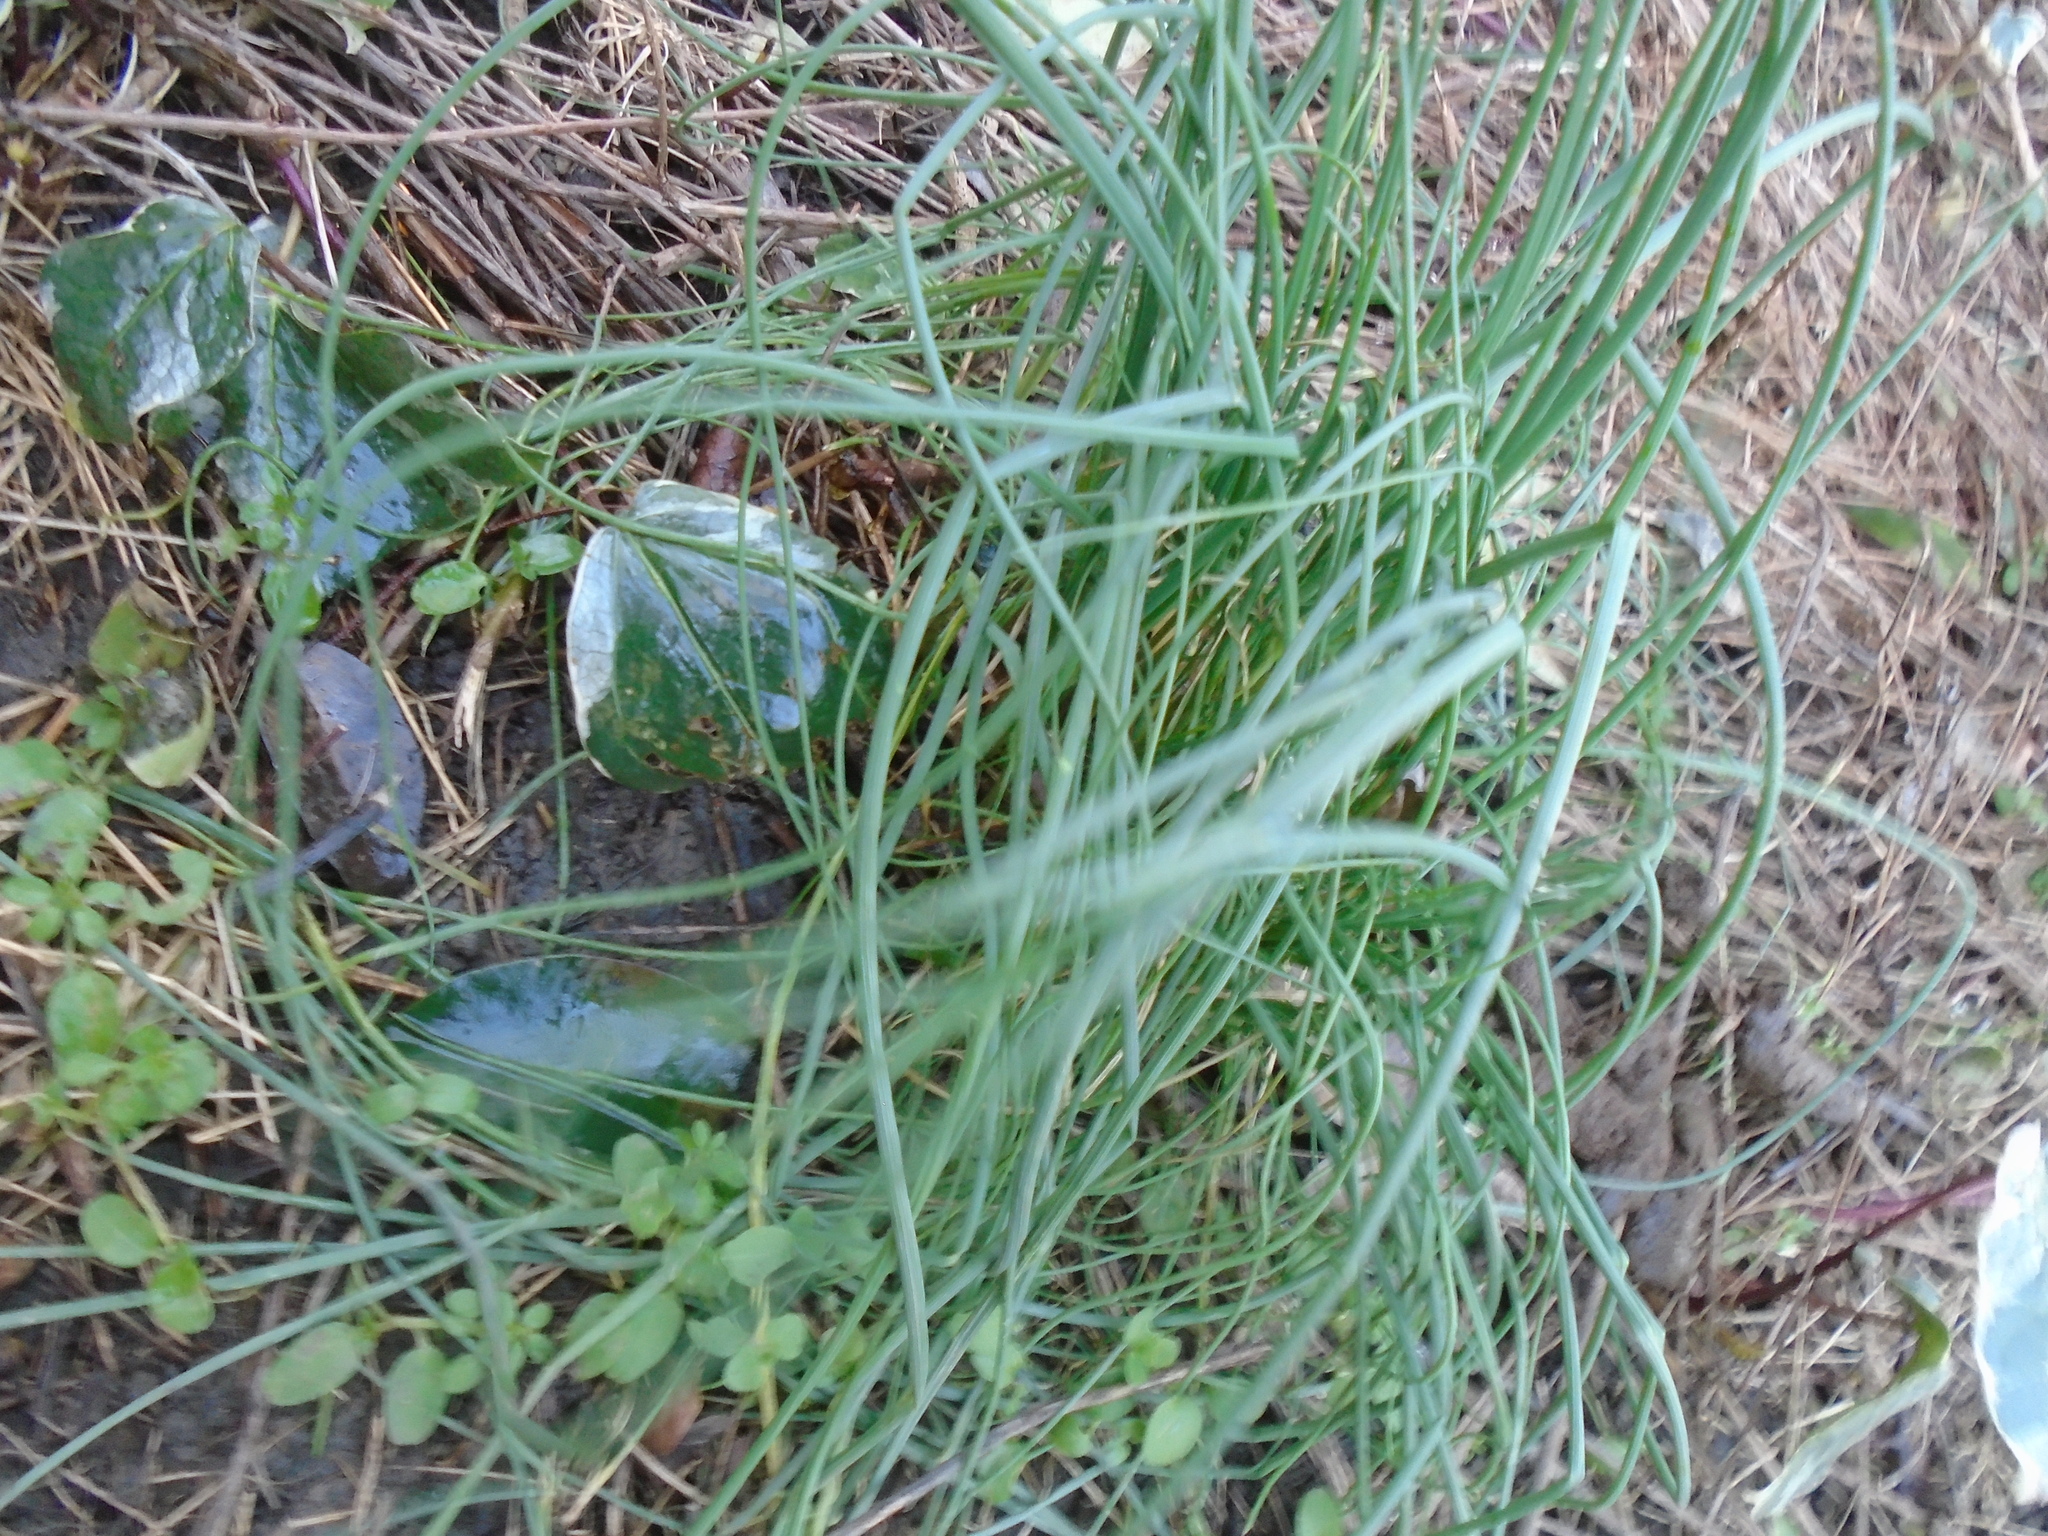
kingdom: Plantae
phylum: Tracheophyta
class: Liliopsida
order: Asparagales
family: Amaryllidaceae
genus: Allium
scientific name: Allium vineale
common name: Crow garlic
